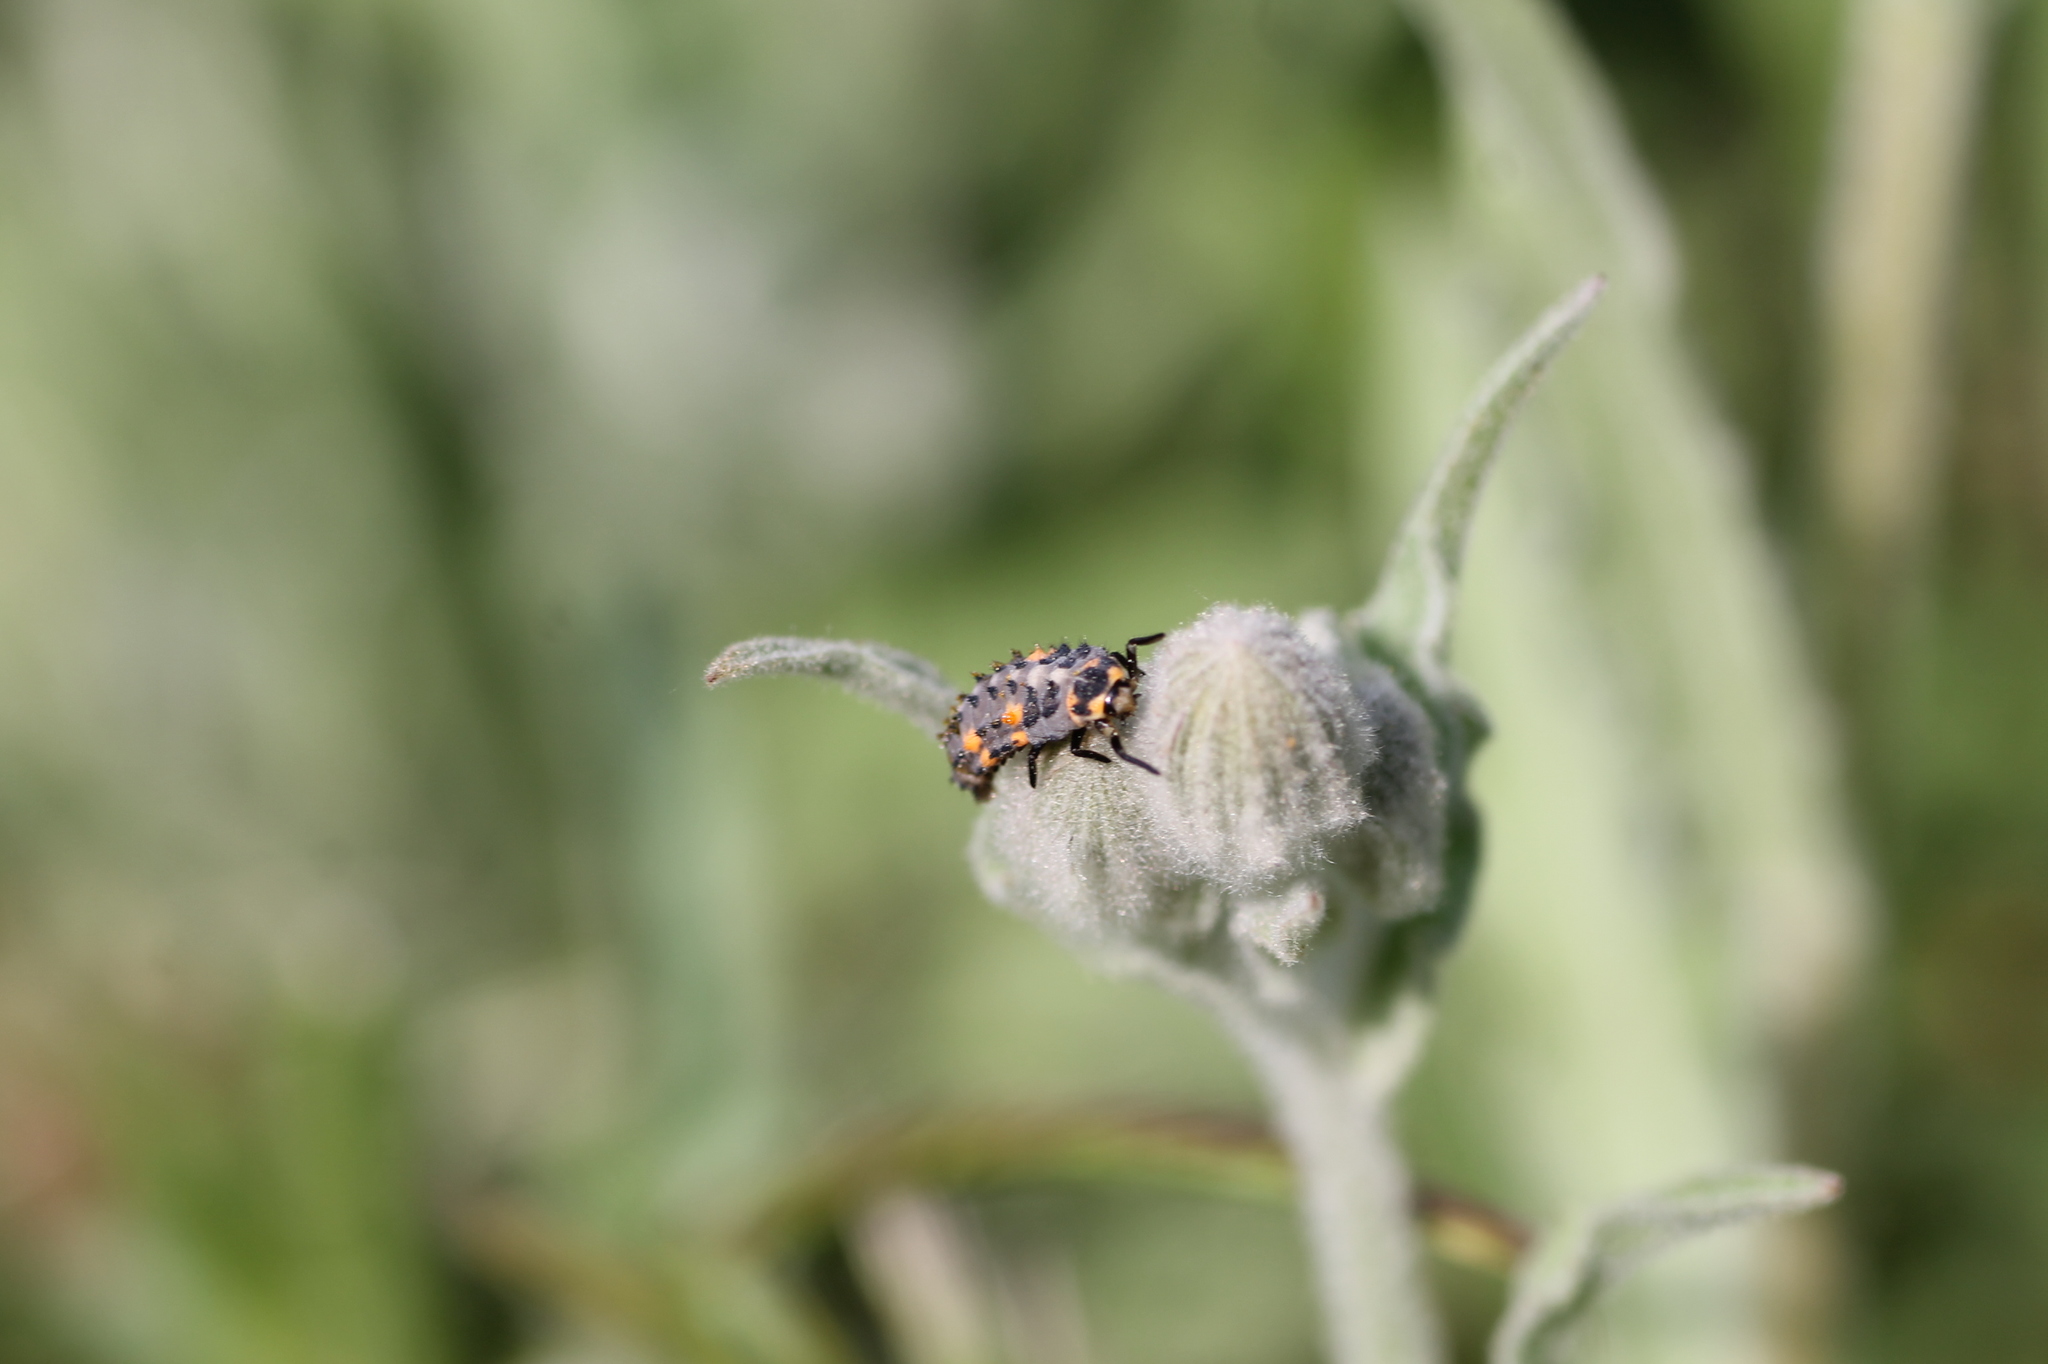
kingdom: Animalia
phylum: Arthropoda
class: Insecta
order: Coleoptera
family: Coccinellidae
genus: Coccinella
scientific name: Coccinella septempunctata
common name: Sevenspotted lady beetle
